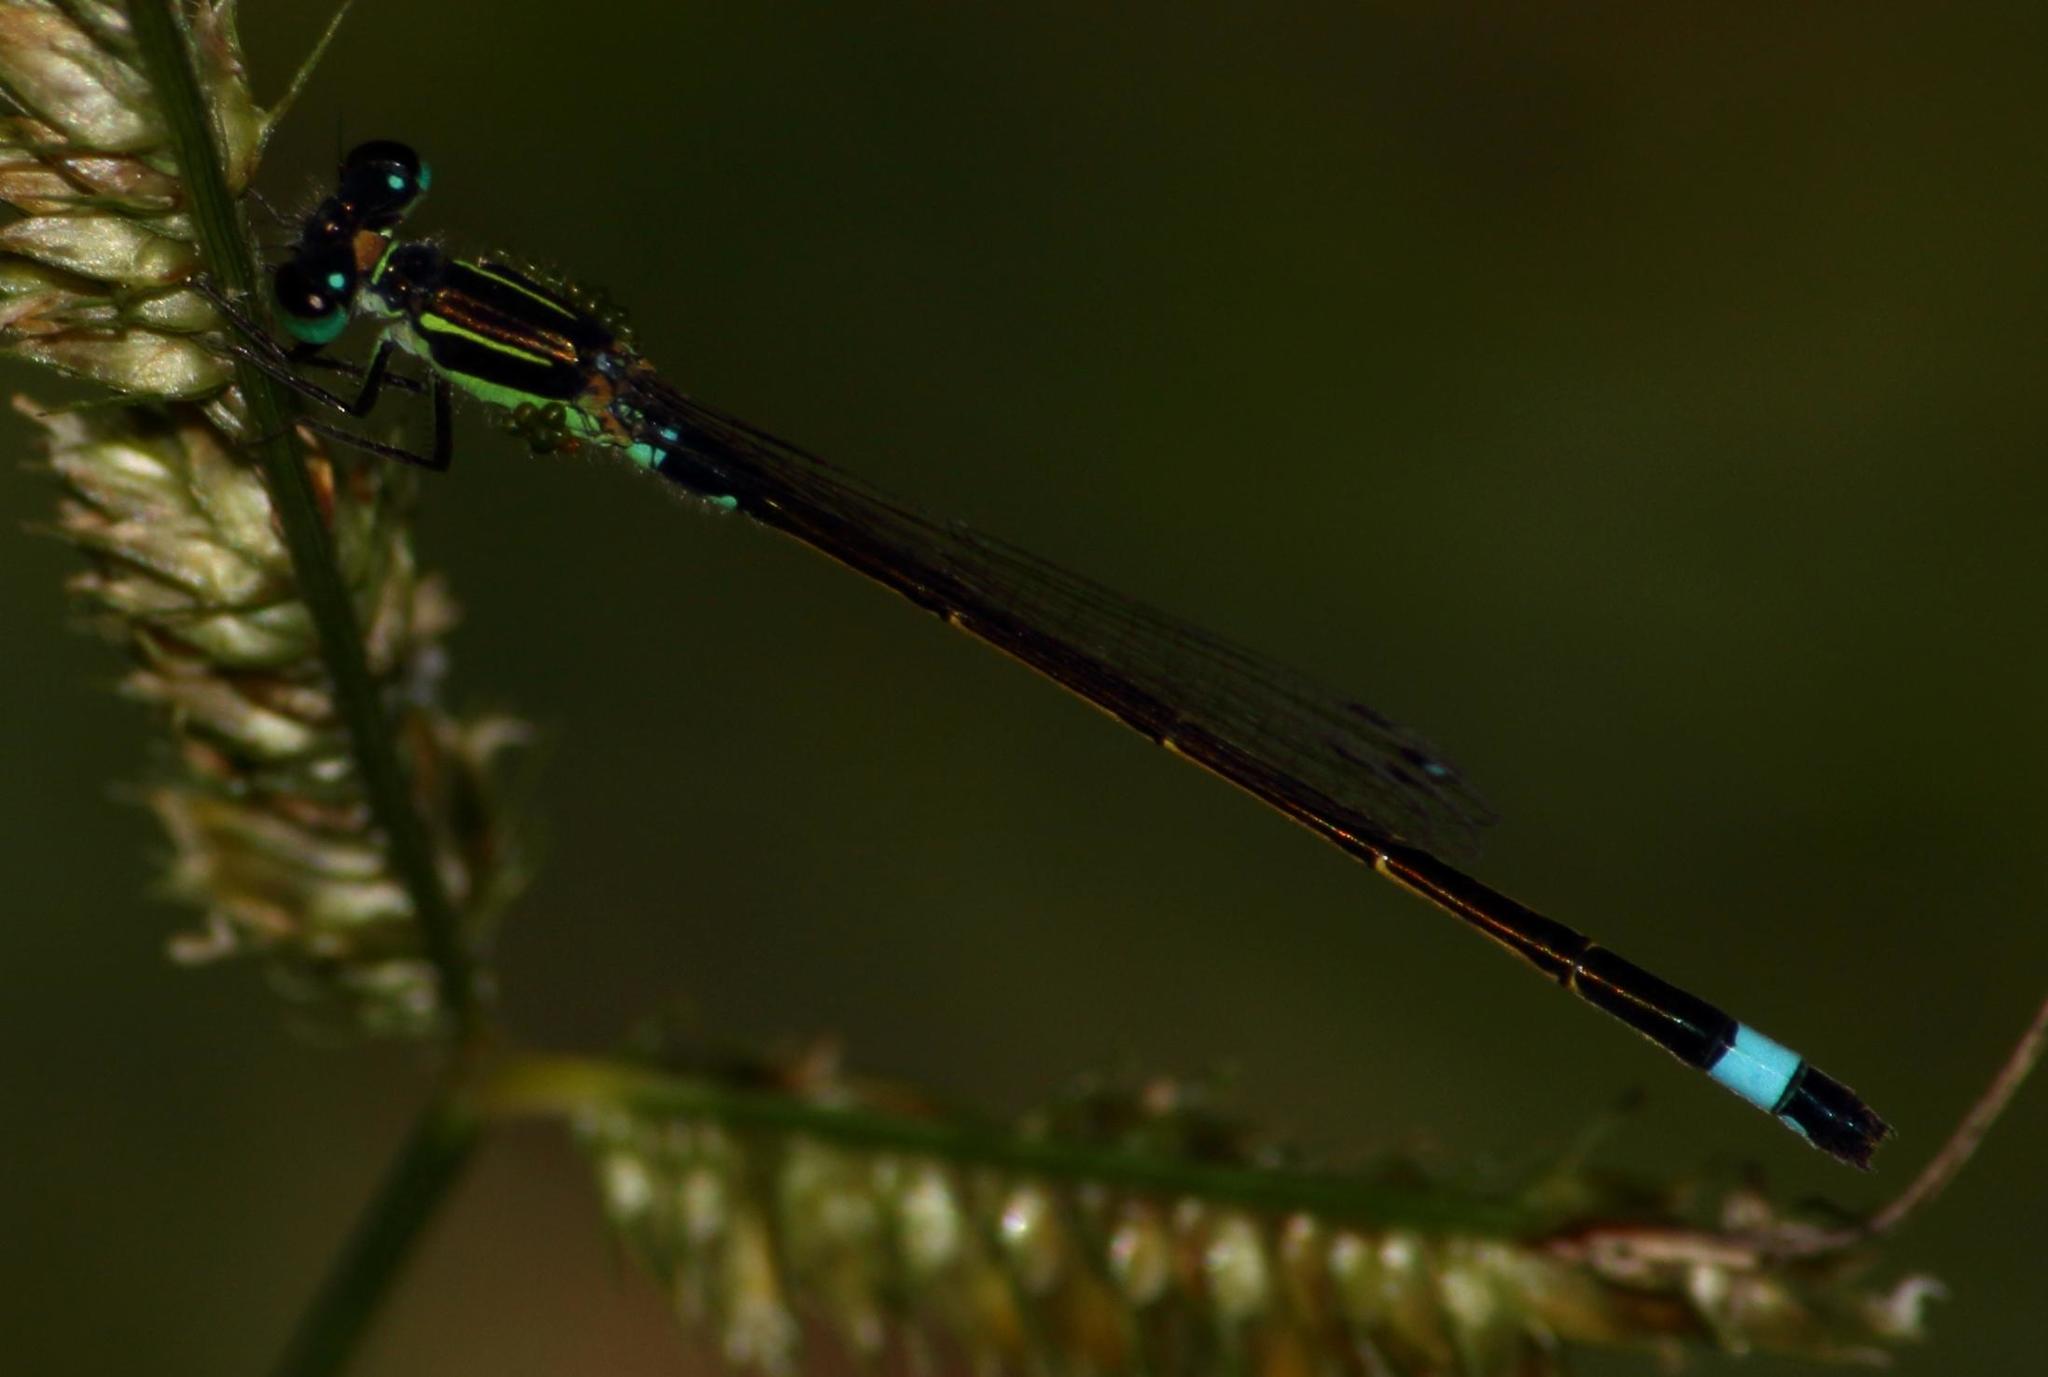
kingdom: Animalia
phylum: Arthropoda
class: Insecta
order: Odonata
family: Coenagrionidae
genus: Ischnura
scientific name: Ischnura senegalensis
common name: Tropical bluetail
